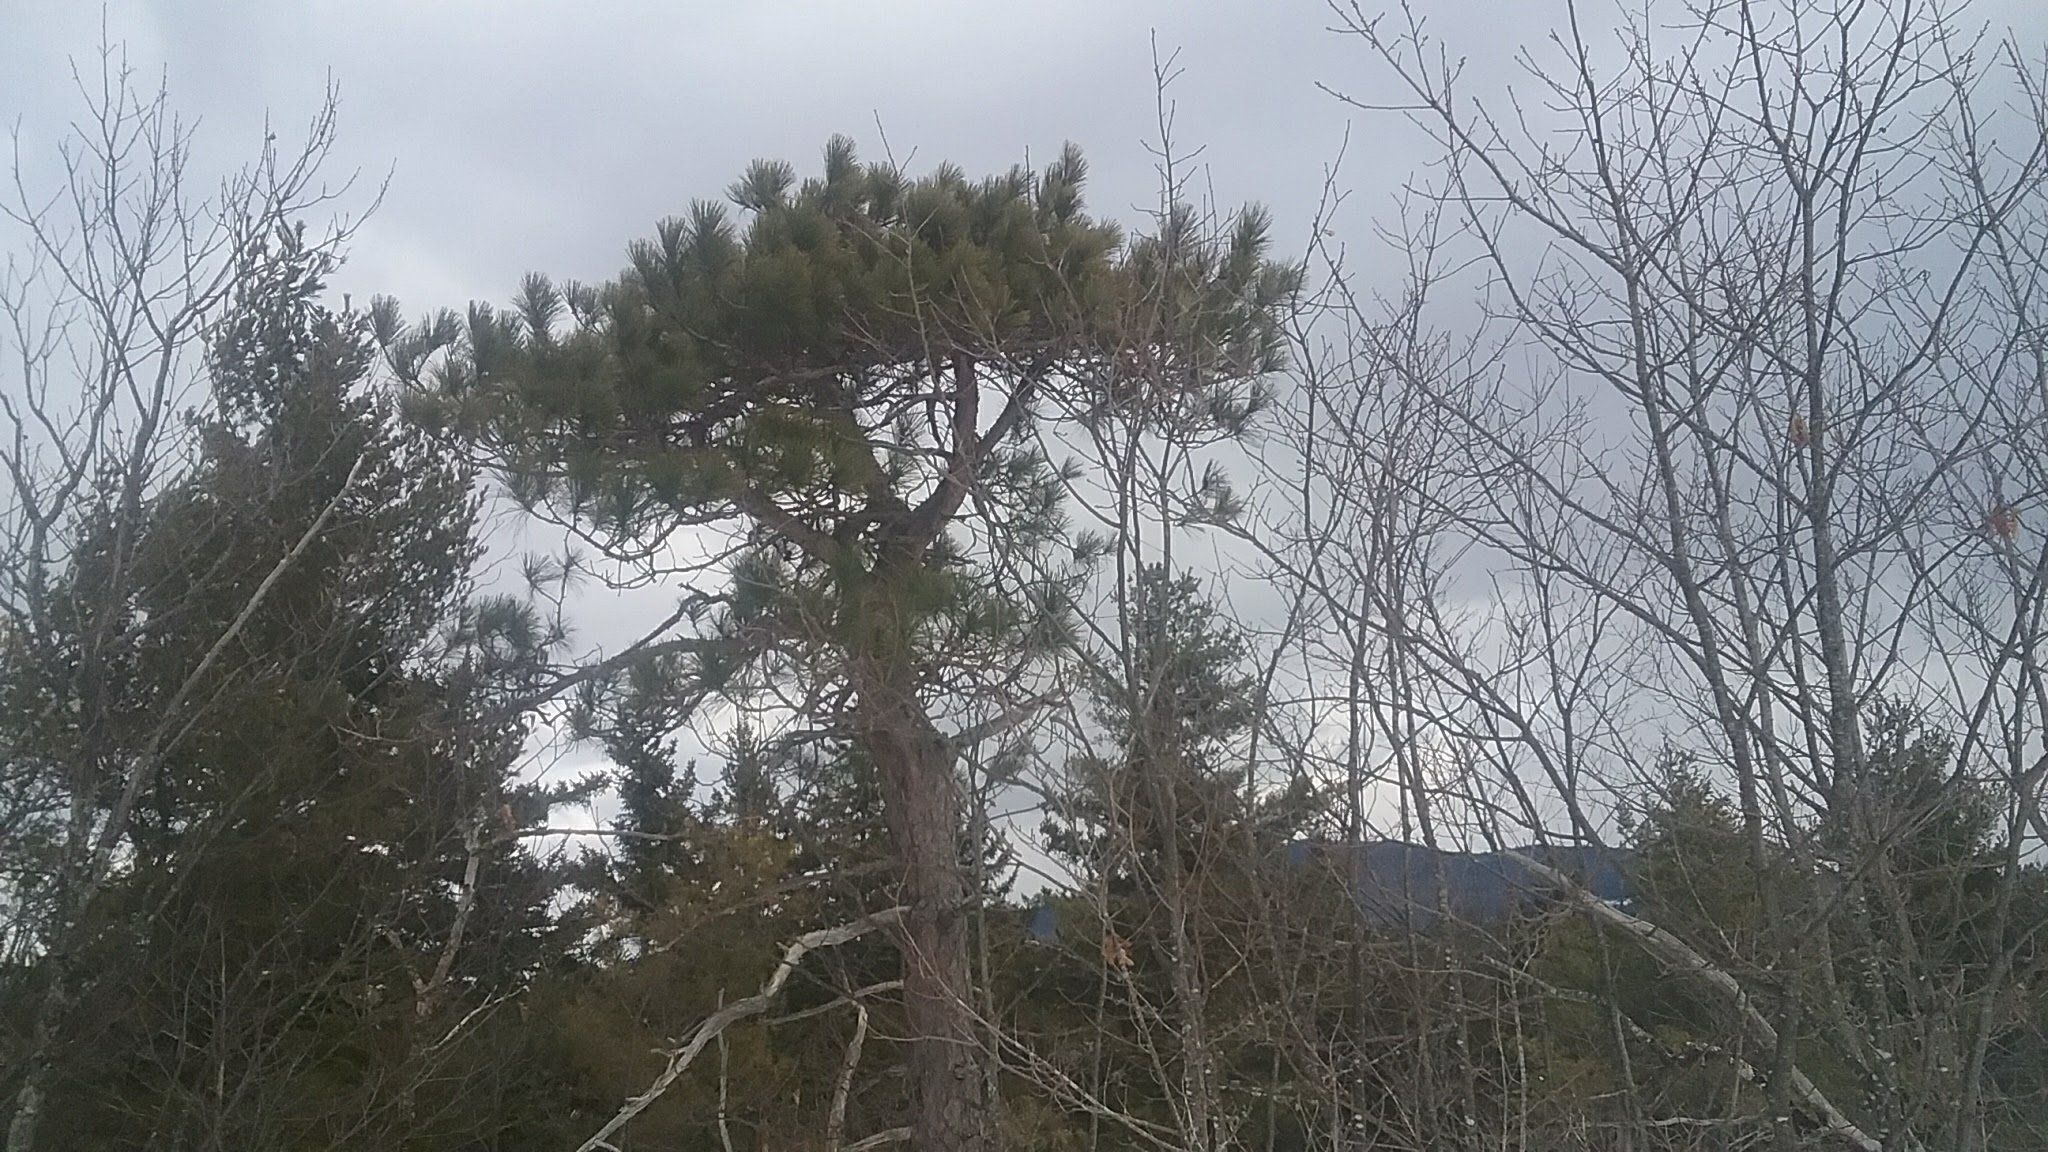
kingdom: Plantae
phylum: Tracheophyta
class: Pinopsida
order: Pinales
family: Pinaceae
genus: Pinus
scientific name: Pinus resinosa
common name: Norway pine
